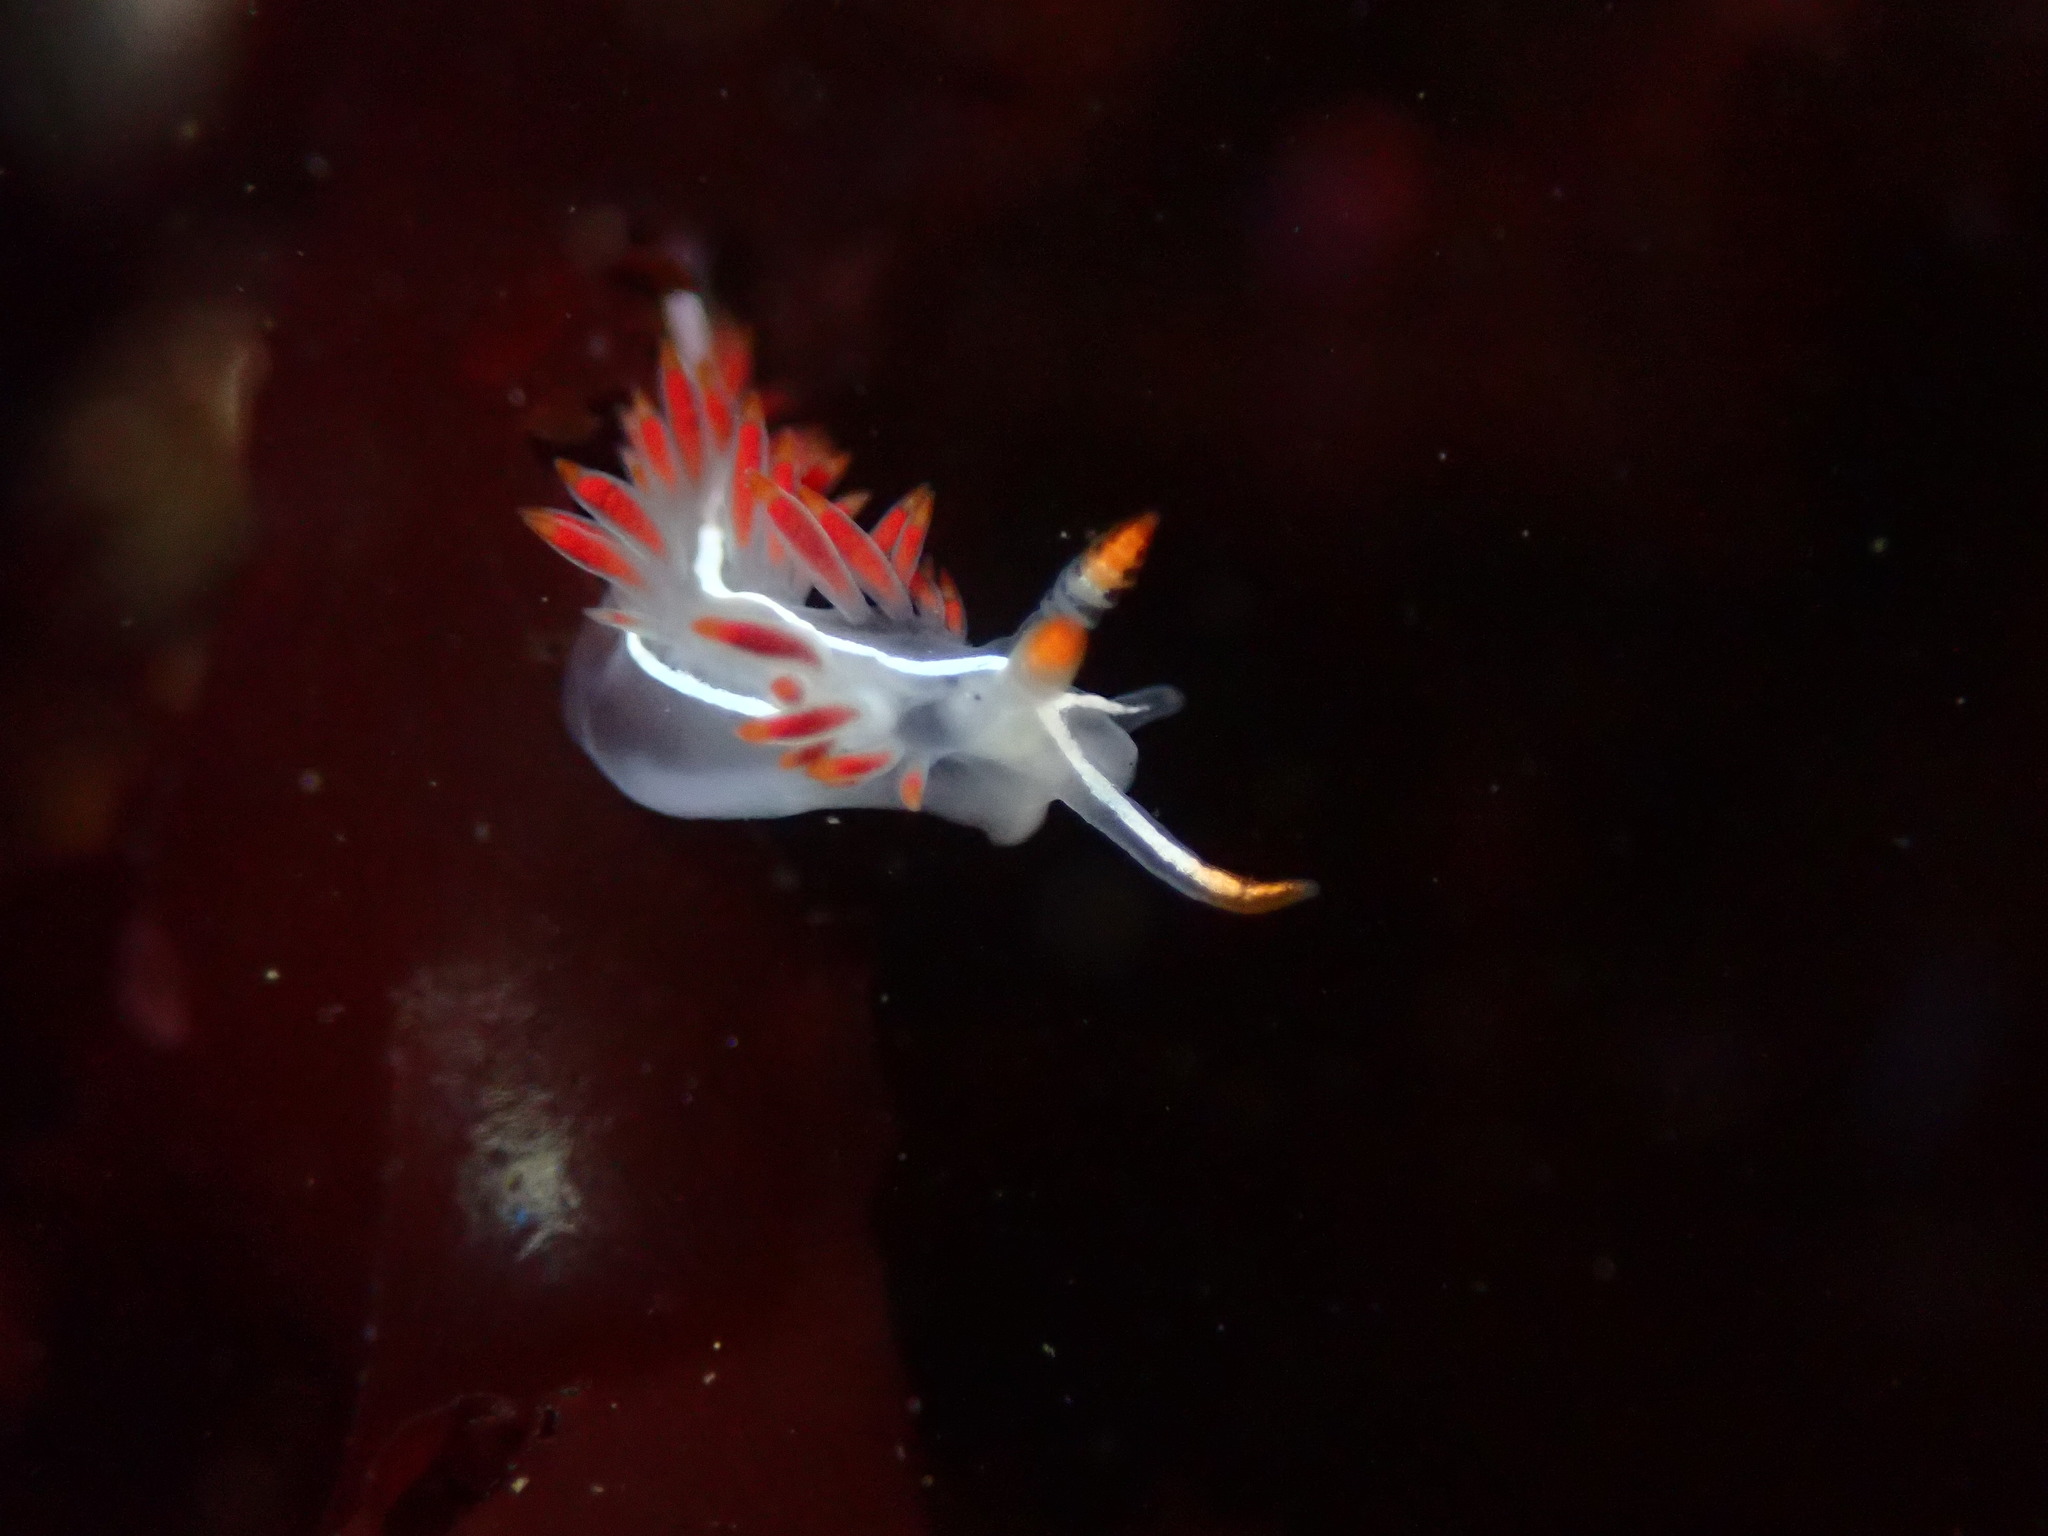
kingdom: Animalia
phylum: Mollusca
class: Gastropoda
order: Nudibranchia
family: Coryphellidae
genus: Coryphella
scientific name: Coryphella trilineata
